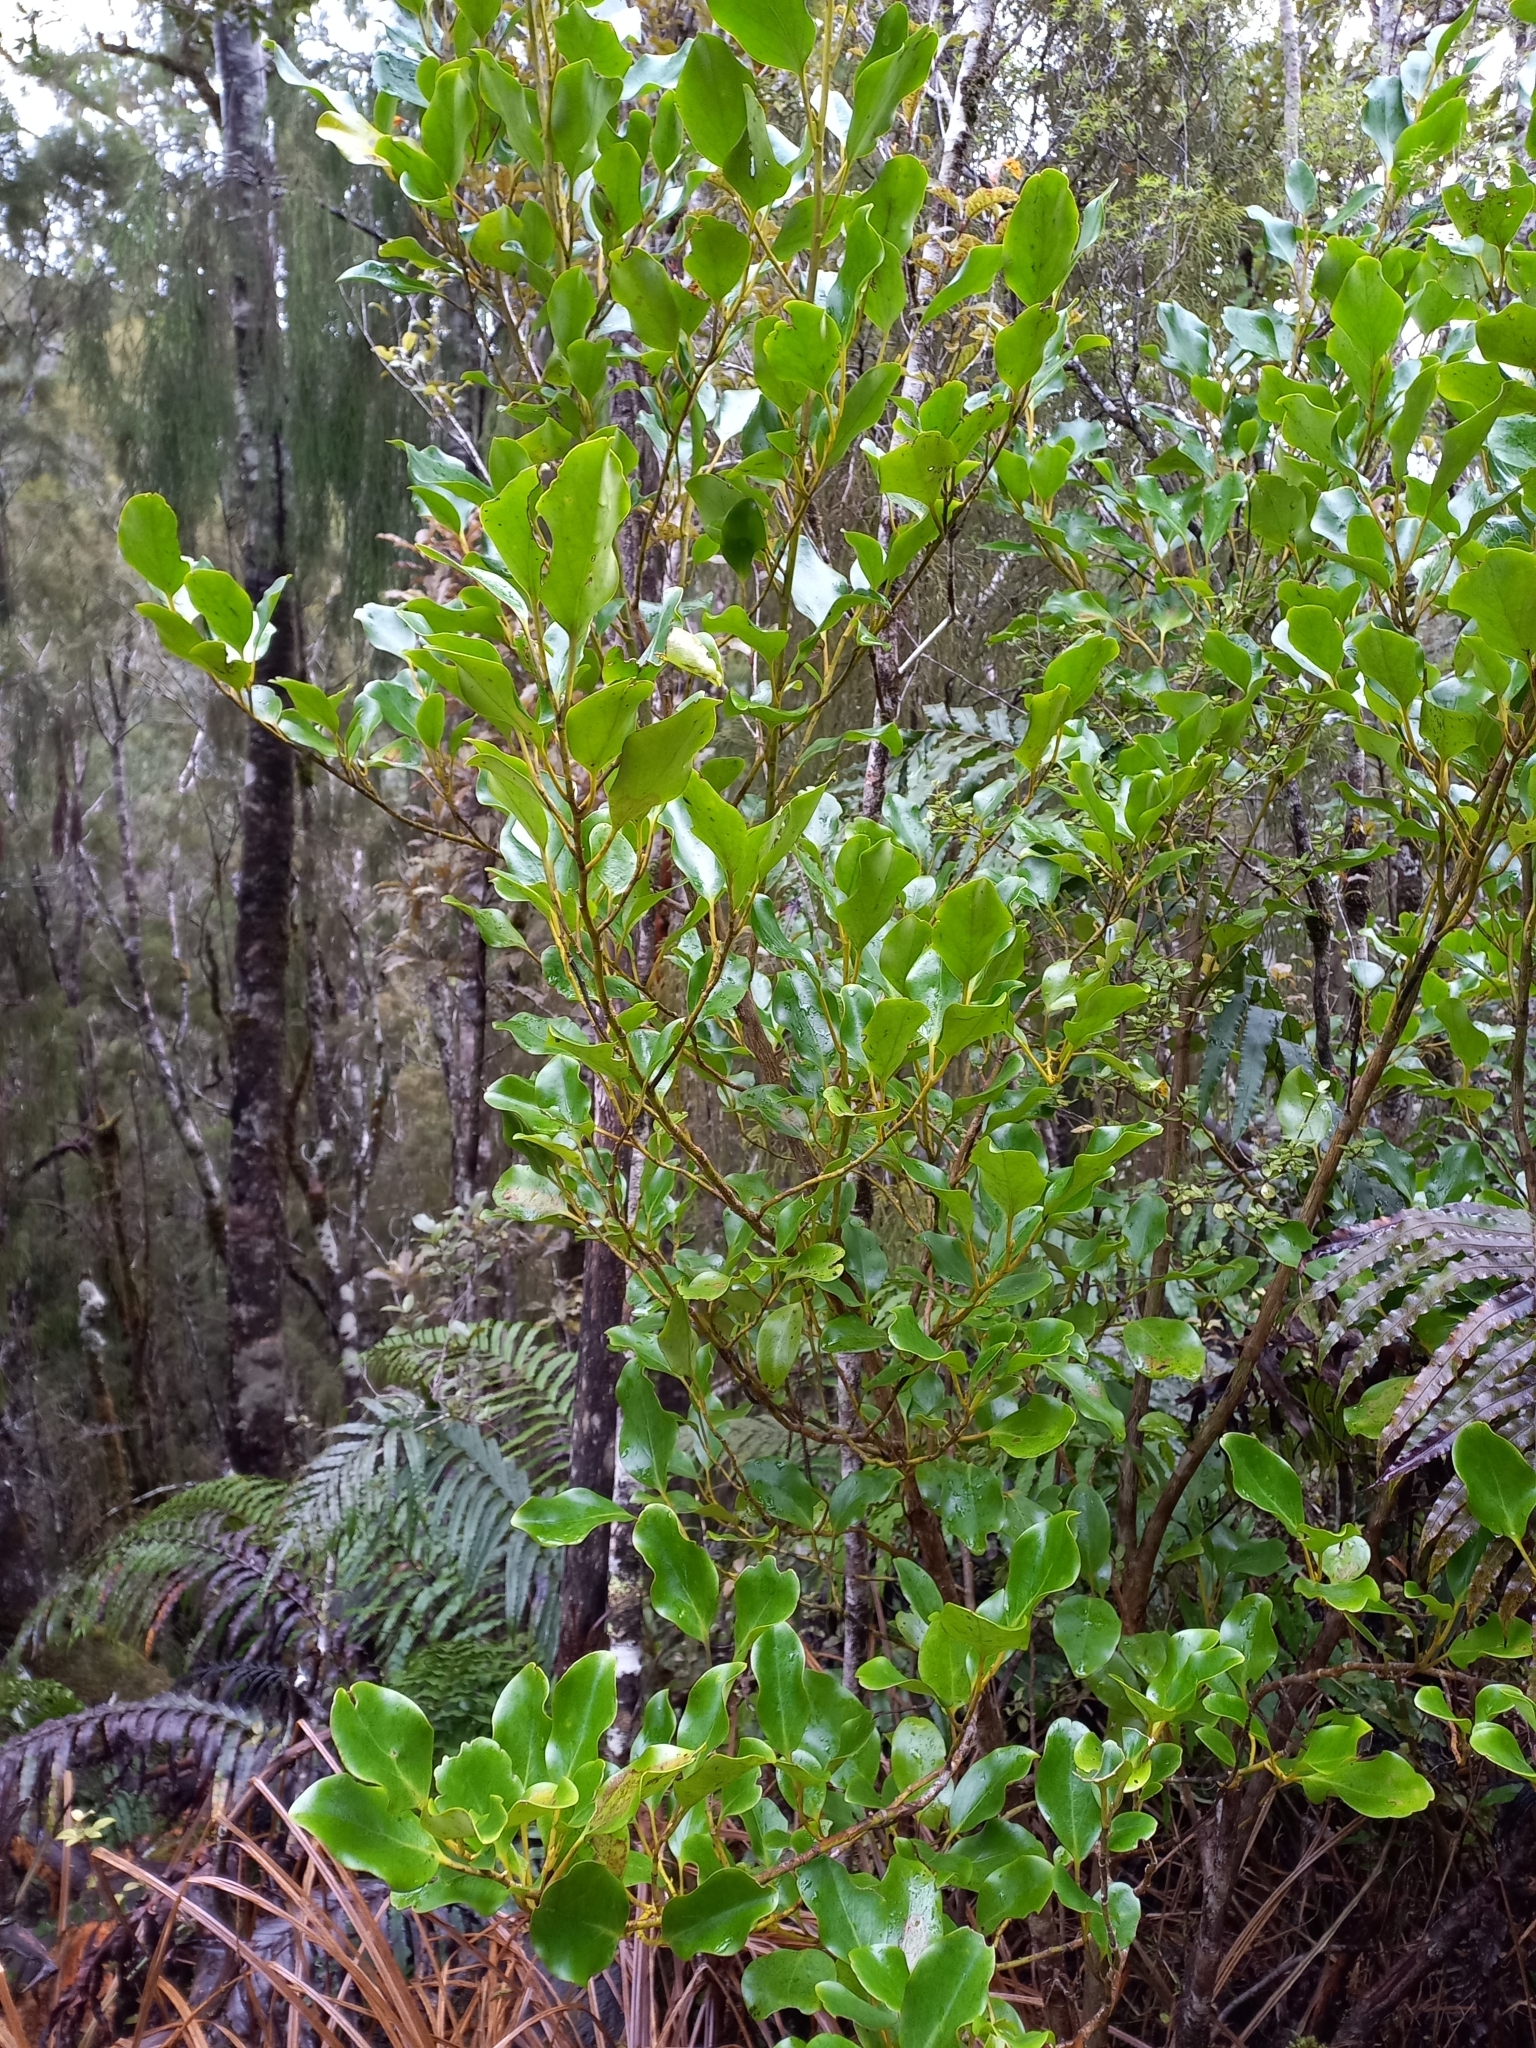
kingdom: Plantae
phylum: Tracheophyta
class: Magnoliopsida
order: Apiales
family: Griseliniaceae
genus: Griselinia
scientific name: Griselinia littoralis
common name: New zealand broadleaf
